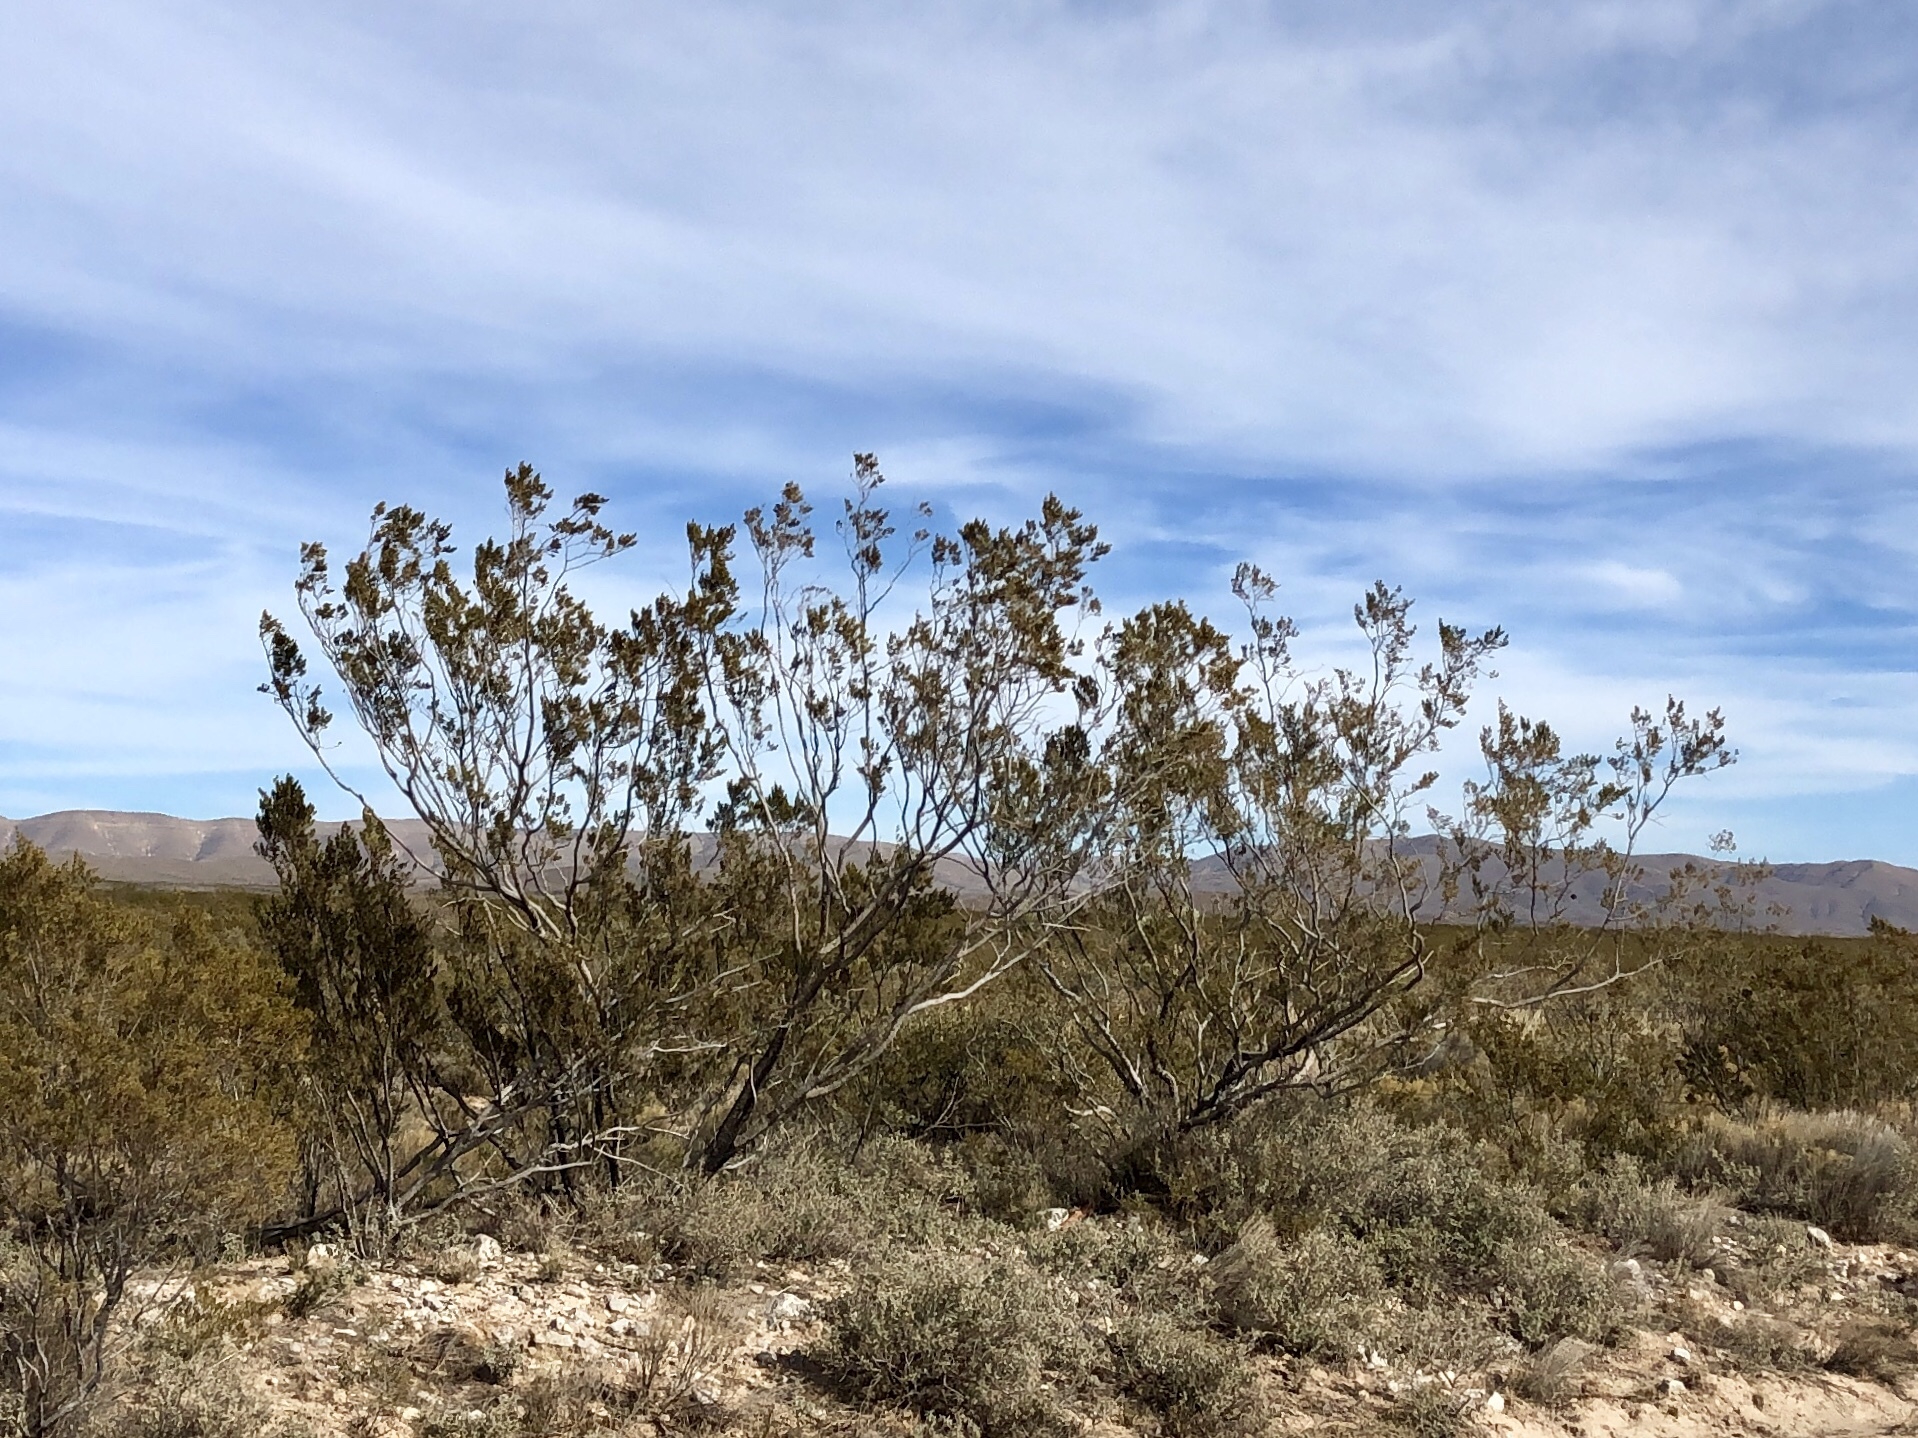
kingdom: Plantae
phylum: Tracheophyta
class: Magnoliopsida
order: Zygophyllales
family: Zygophyllaceae
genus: Larrea
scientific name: Larrea tridentata
